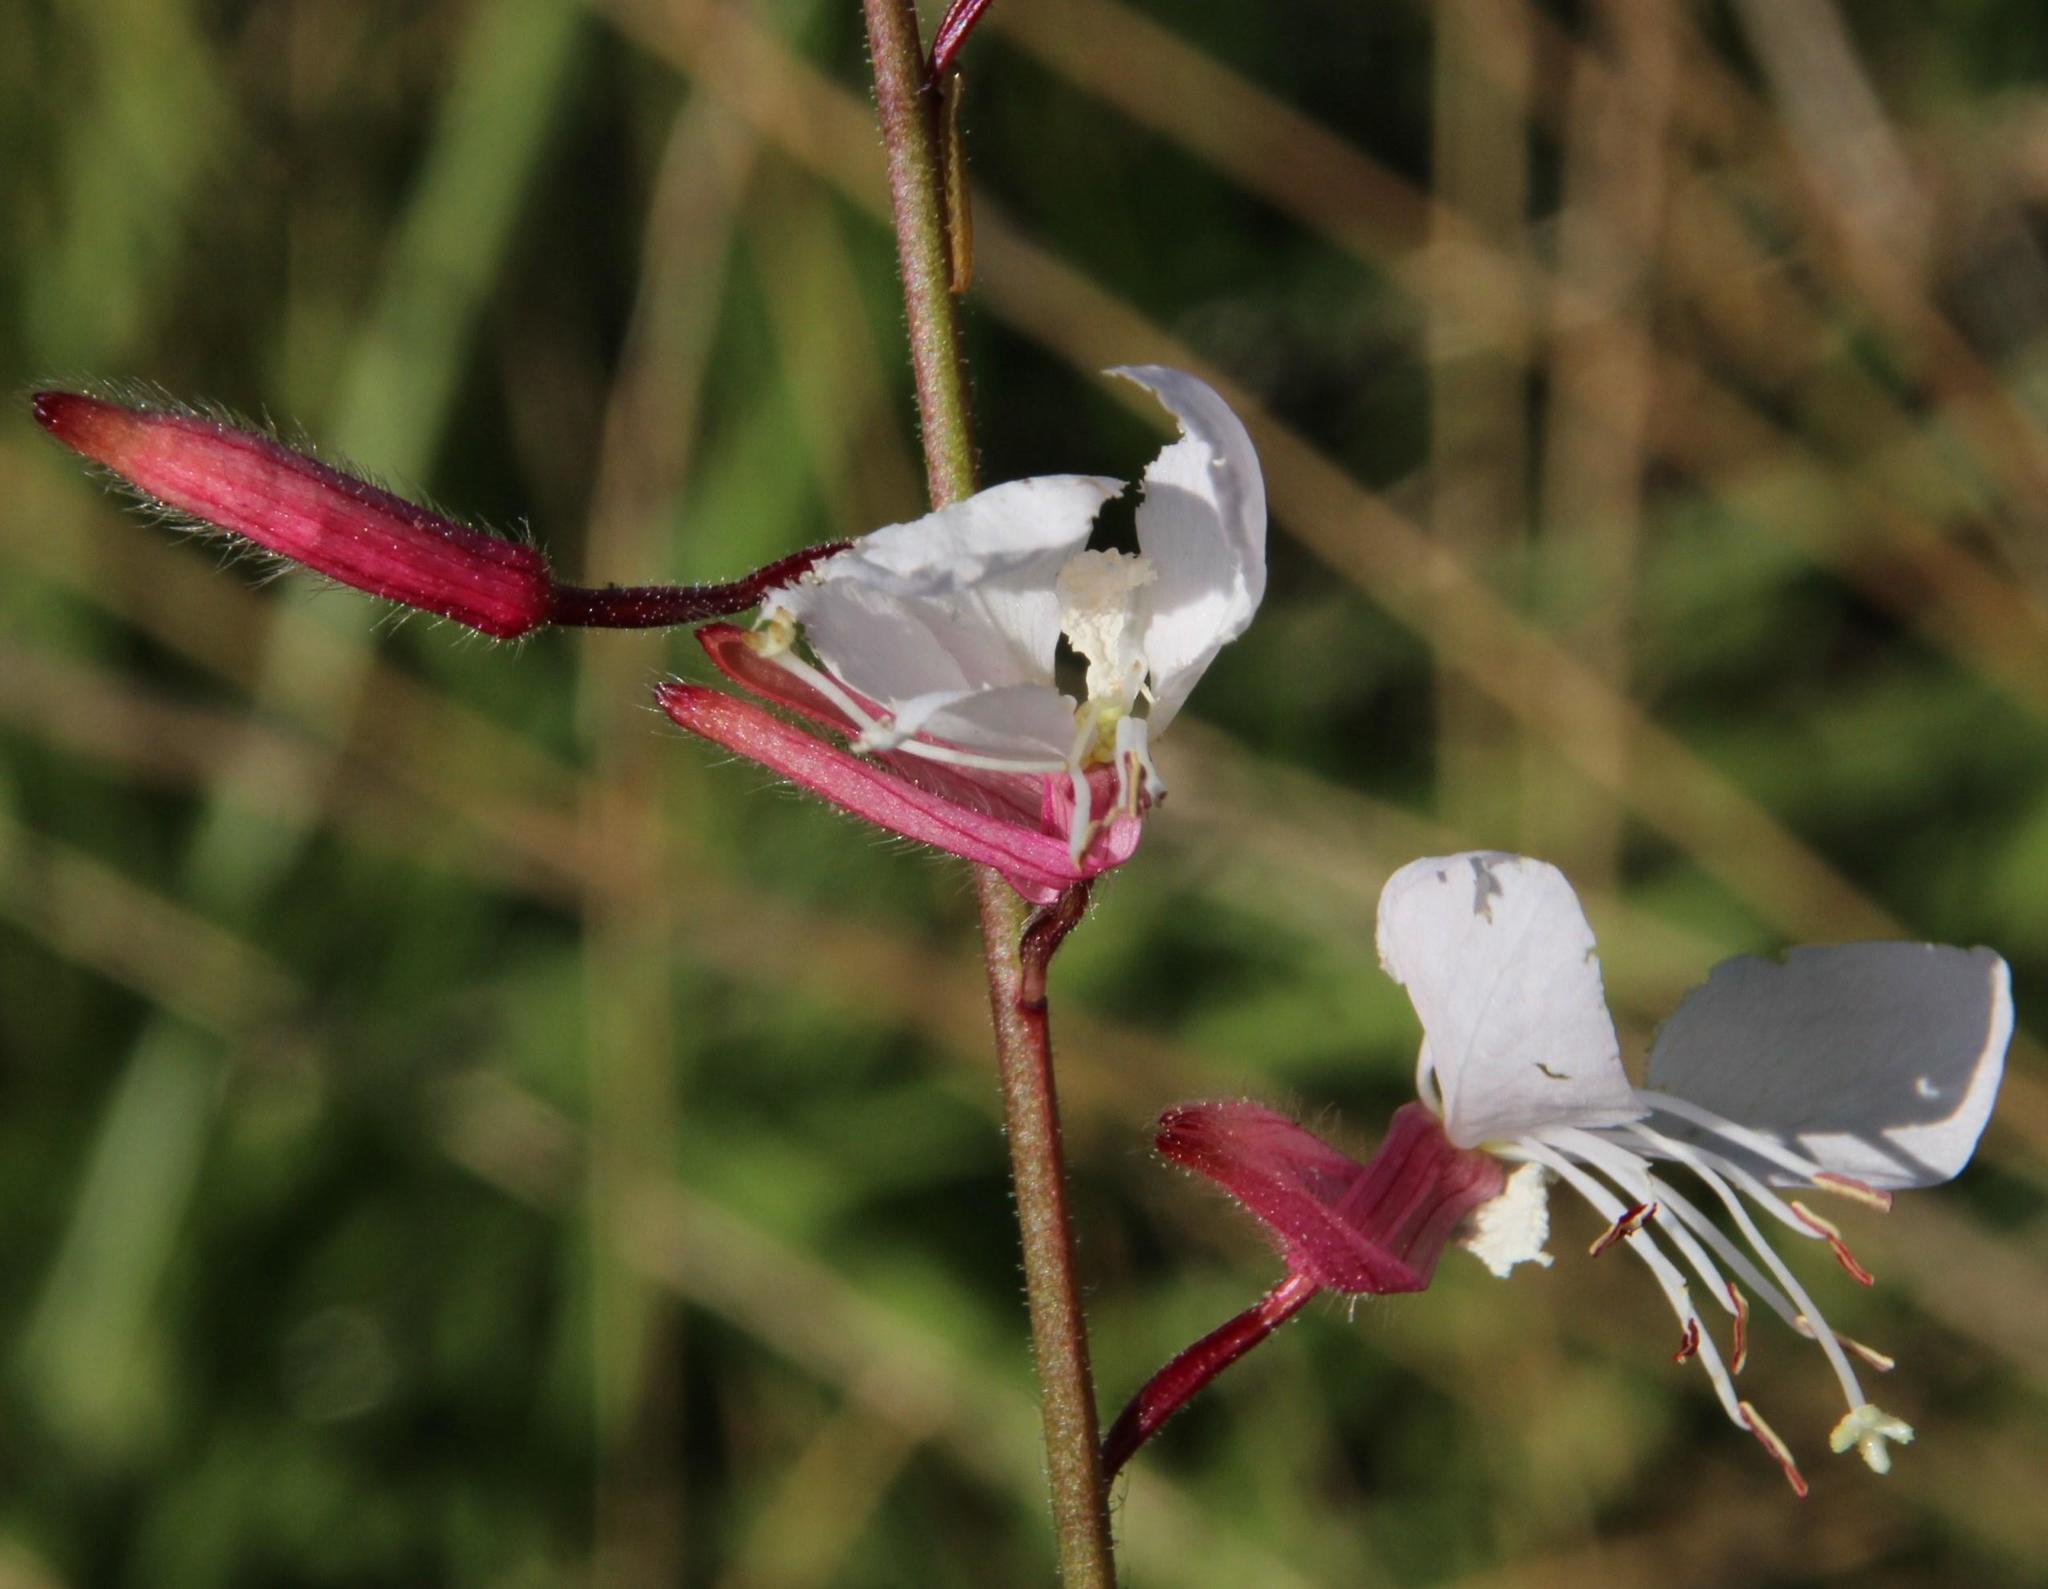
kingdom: Plantae
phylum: Tracheophyta
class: Magnoliopsida
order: Myrtales
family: Onagraceae
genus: Oenothera
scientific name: Oenothera lindheimeri
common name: Lindheimer's beeblossom
